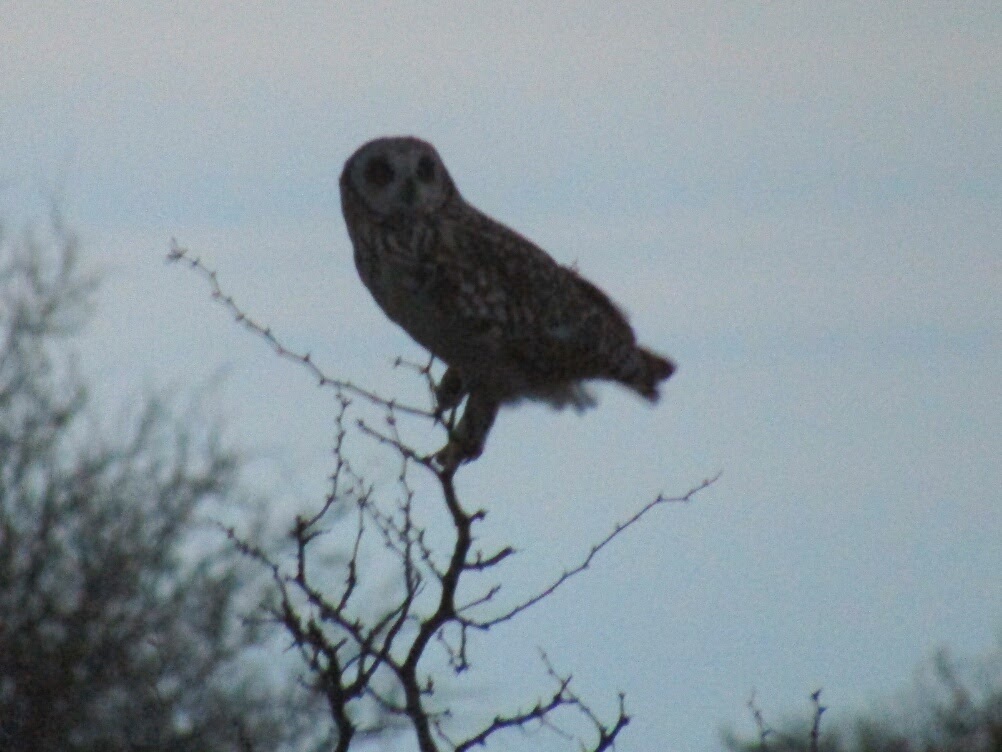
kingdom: Animalia
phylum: Chordata
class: Aves
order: Strigiformes
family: Strigidae
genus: Asio
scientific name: Asio flammeus
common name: Short-eared owl
